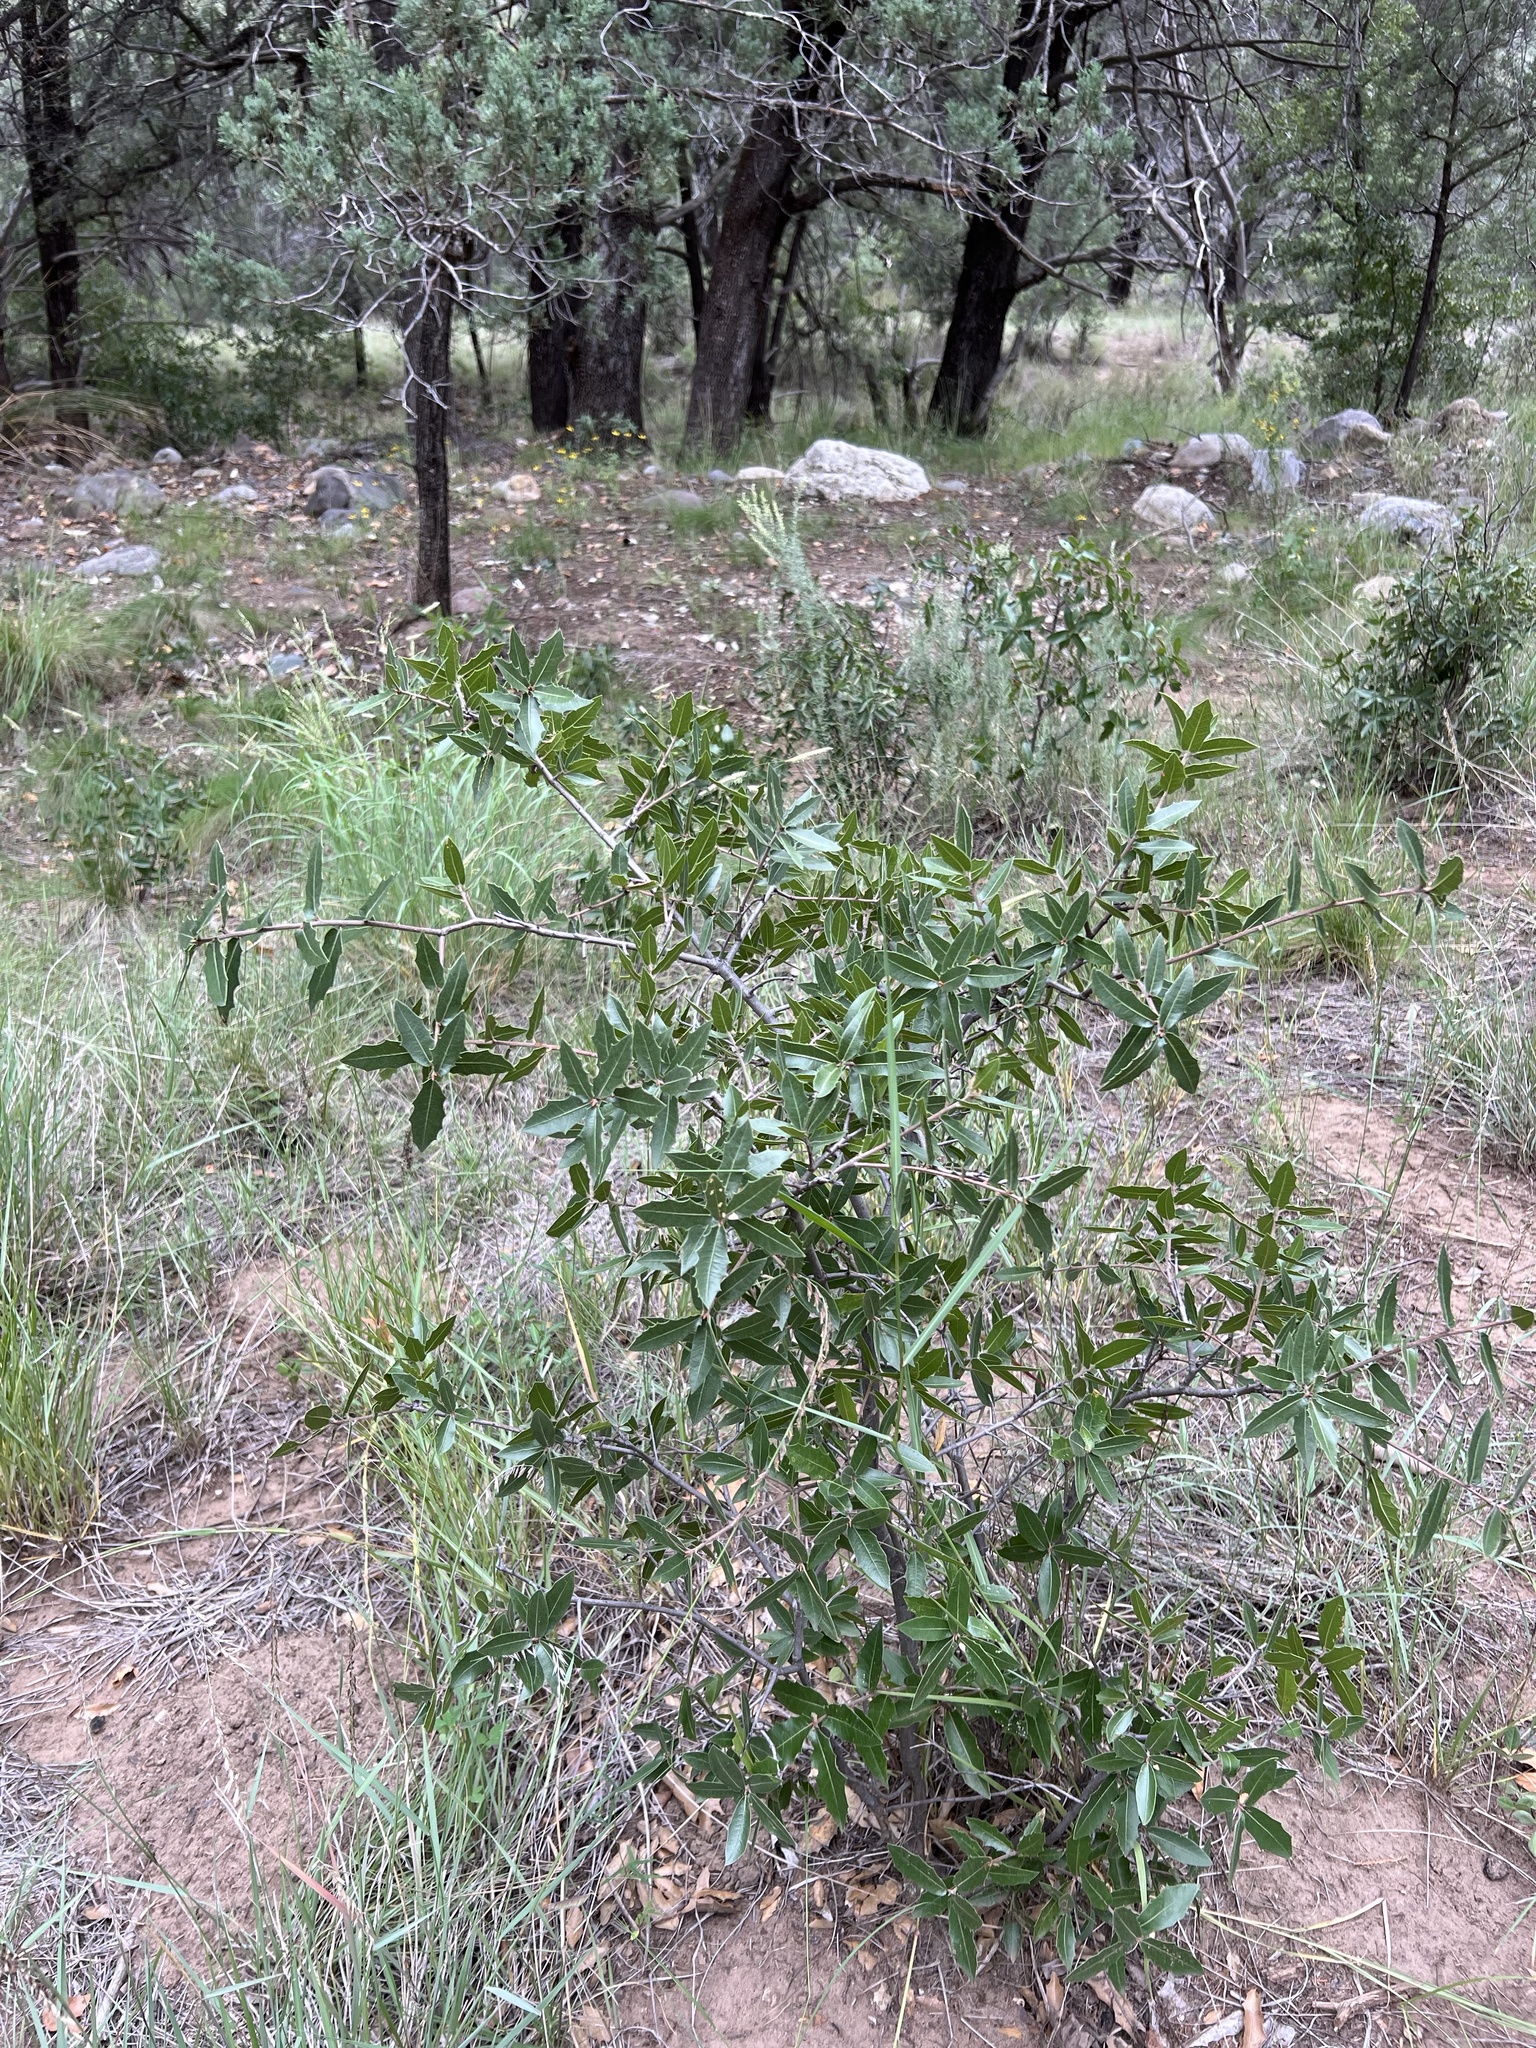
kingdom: Plantae
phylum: Tracheophyta
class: Magnoliopsida
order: Fagales
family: Fagaceae
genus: Quercus
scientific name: Quercus emoryi
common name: Emory oak
